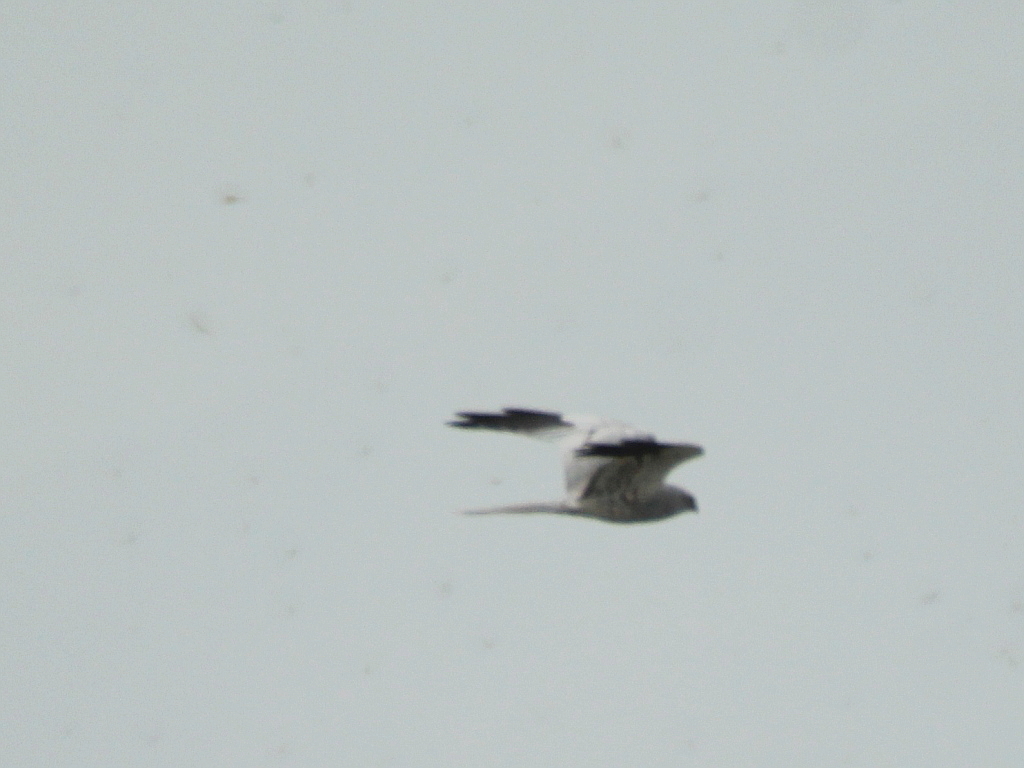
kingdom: Animalia
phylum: Chordata
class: Aves
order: Accipitriformes
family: Accipitridae
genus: Circus
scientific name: Circus pygargus
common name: Montagu's harrier
